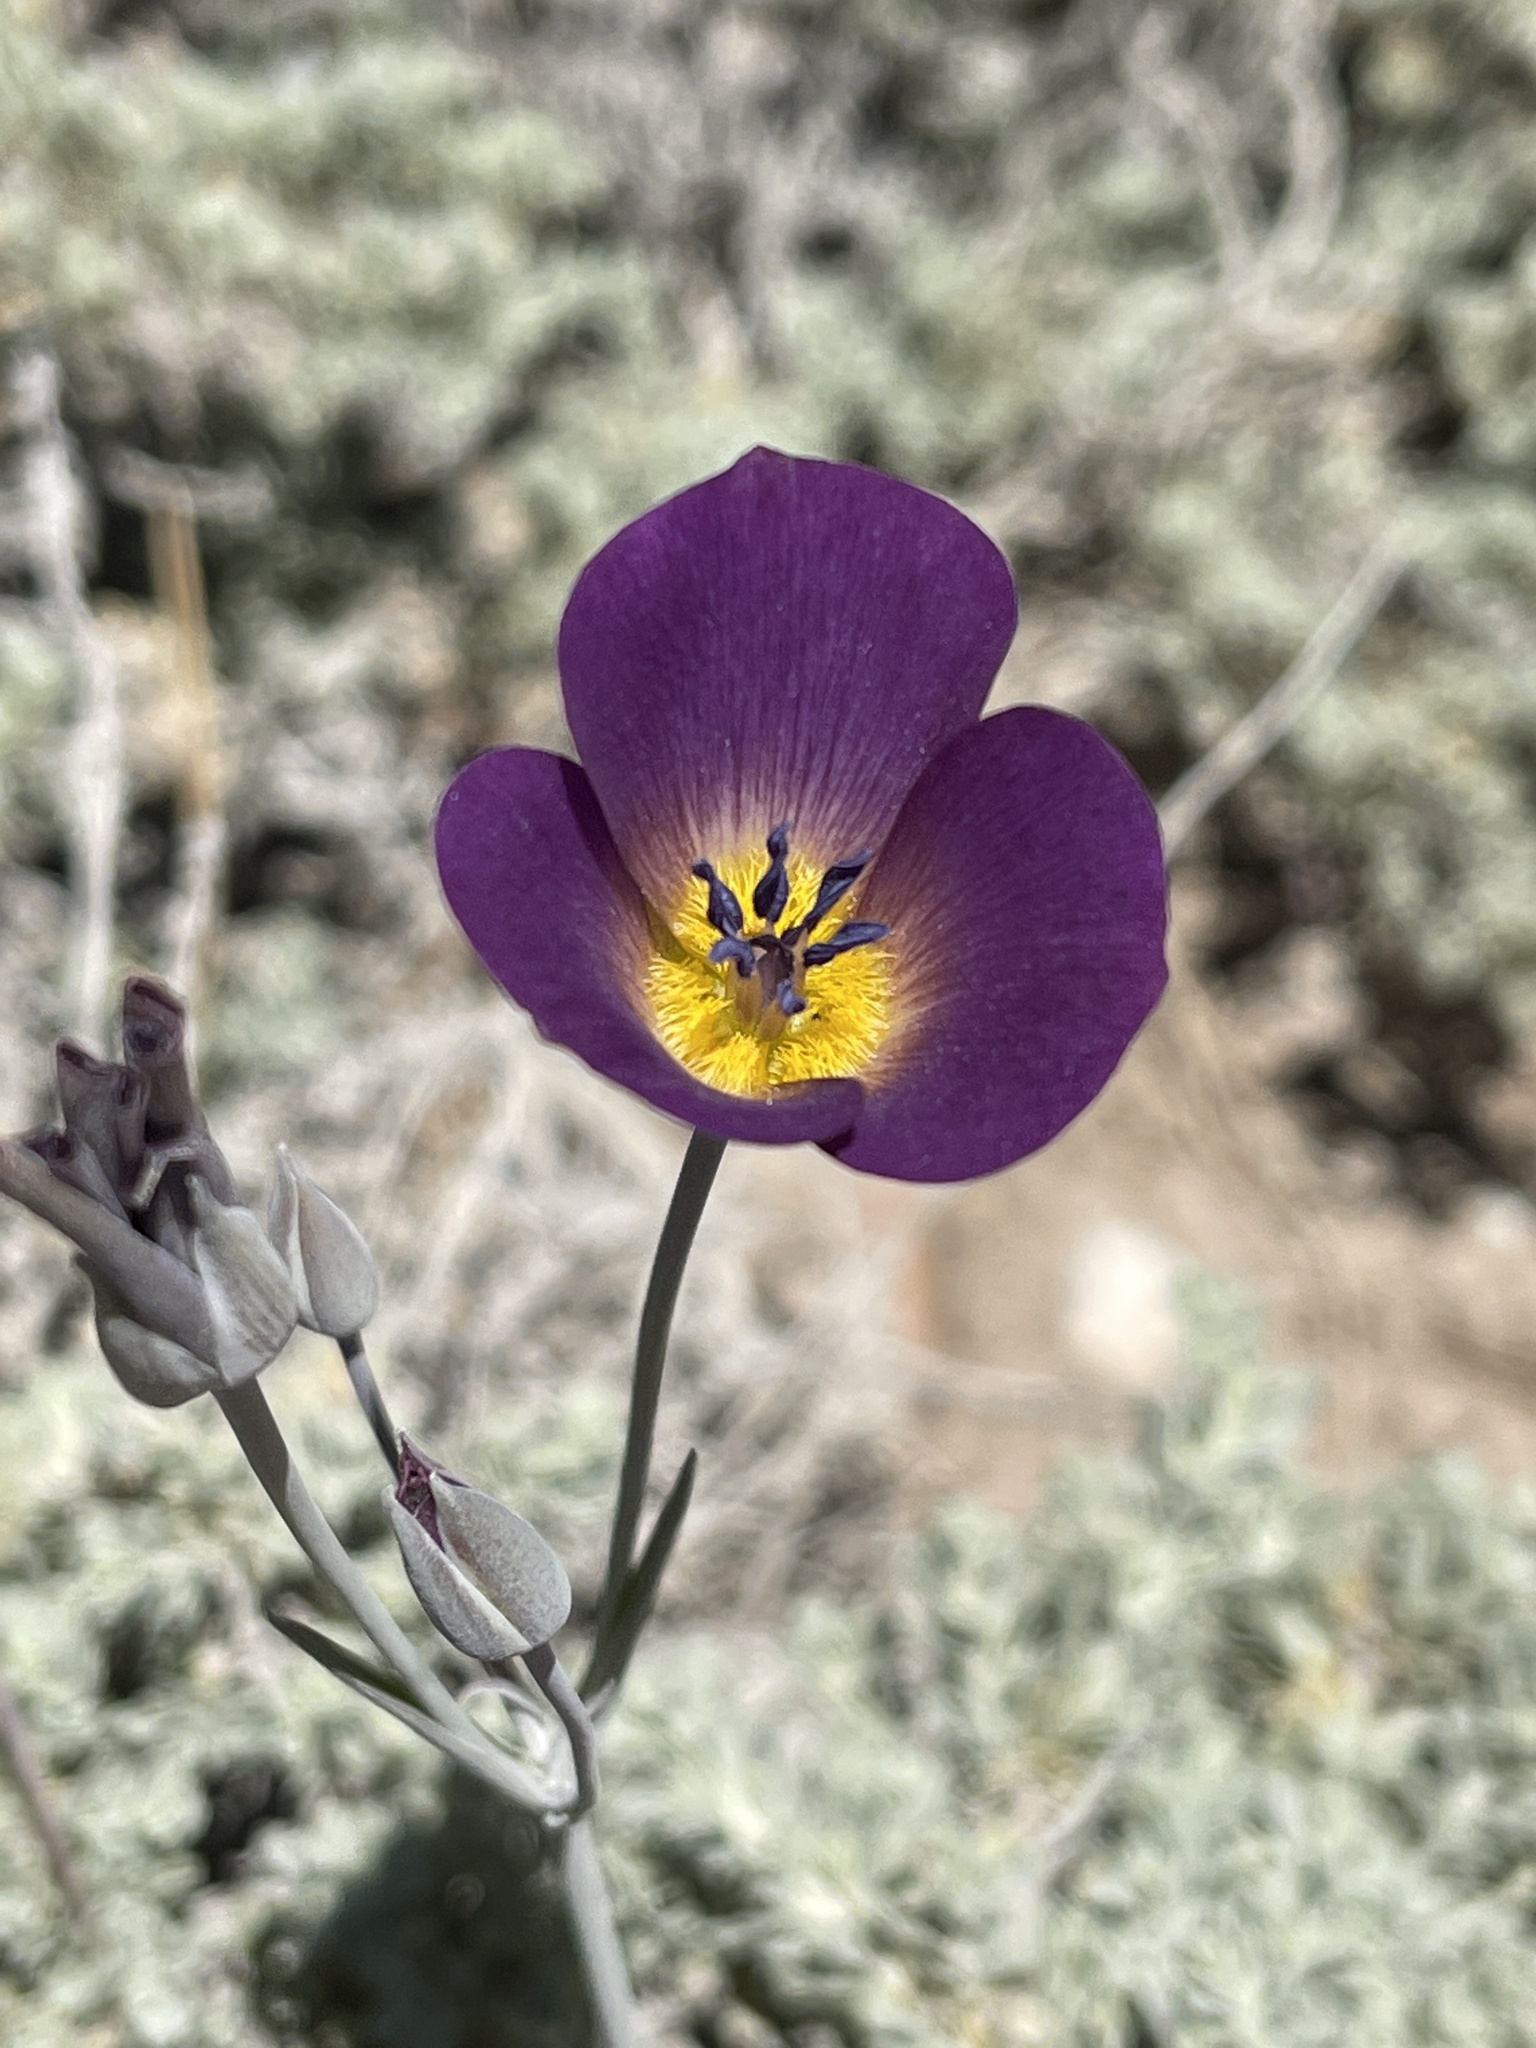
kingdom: Plantae
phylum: Tracheophyta
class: Liliopsida
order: Liliales
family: Liliaceae
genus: Calochortus
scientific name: Calochortus invenustus
